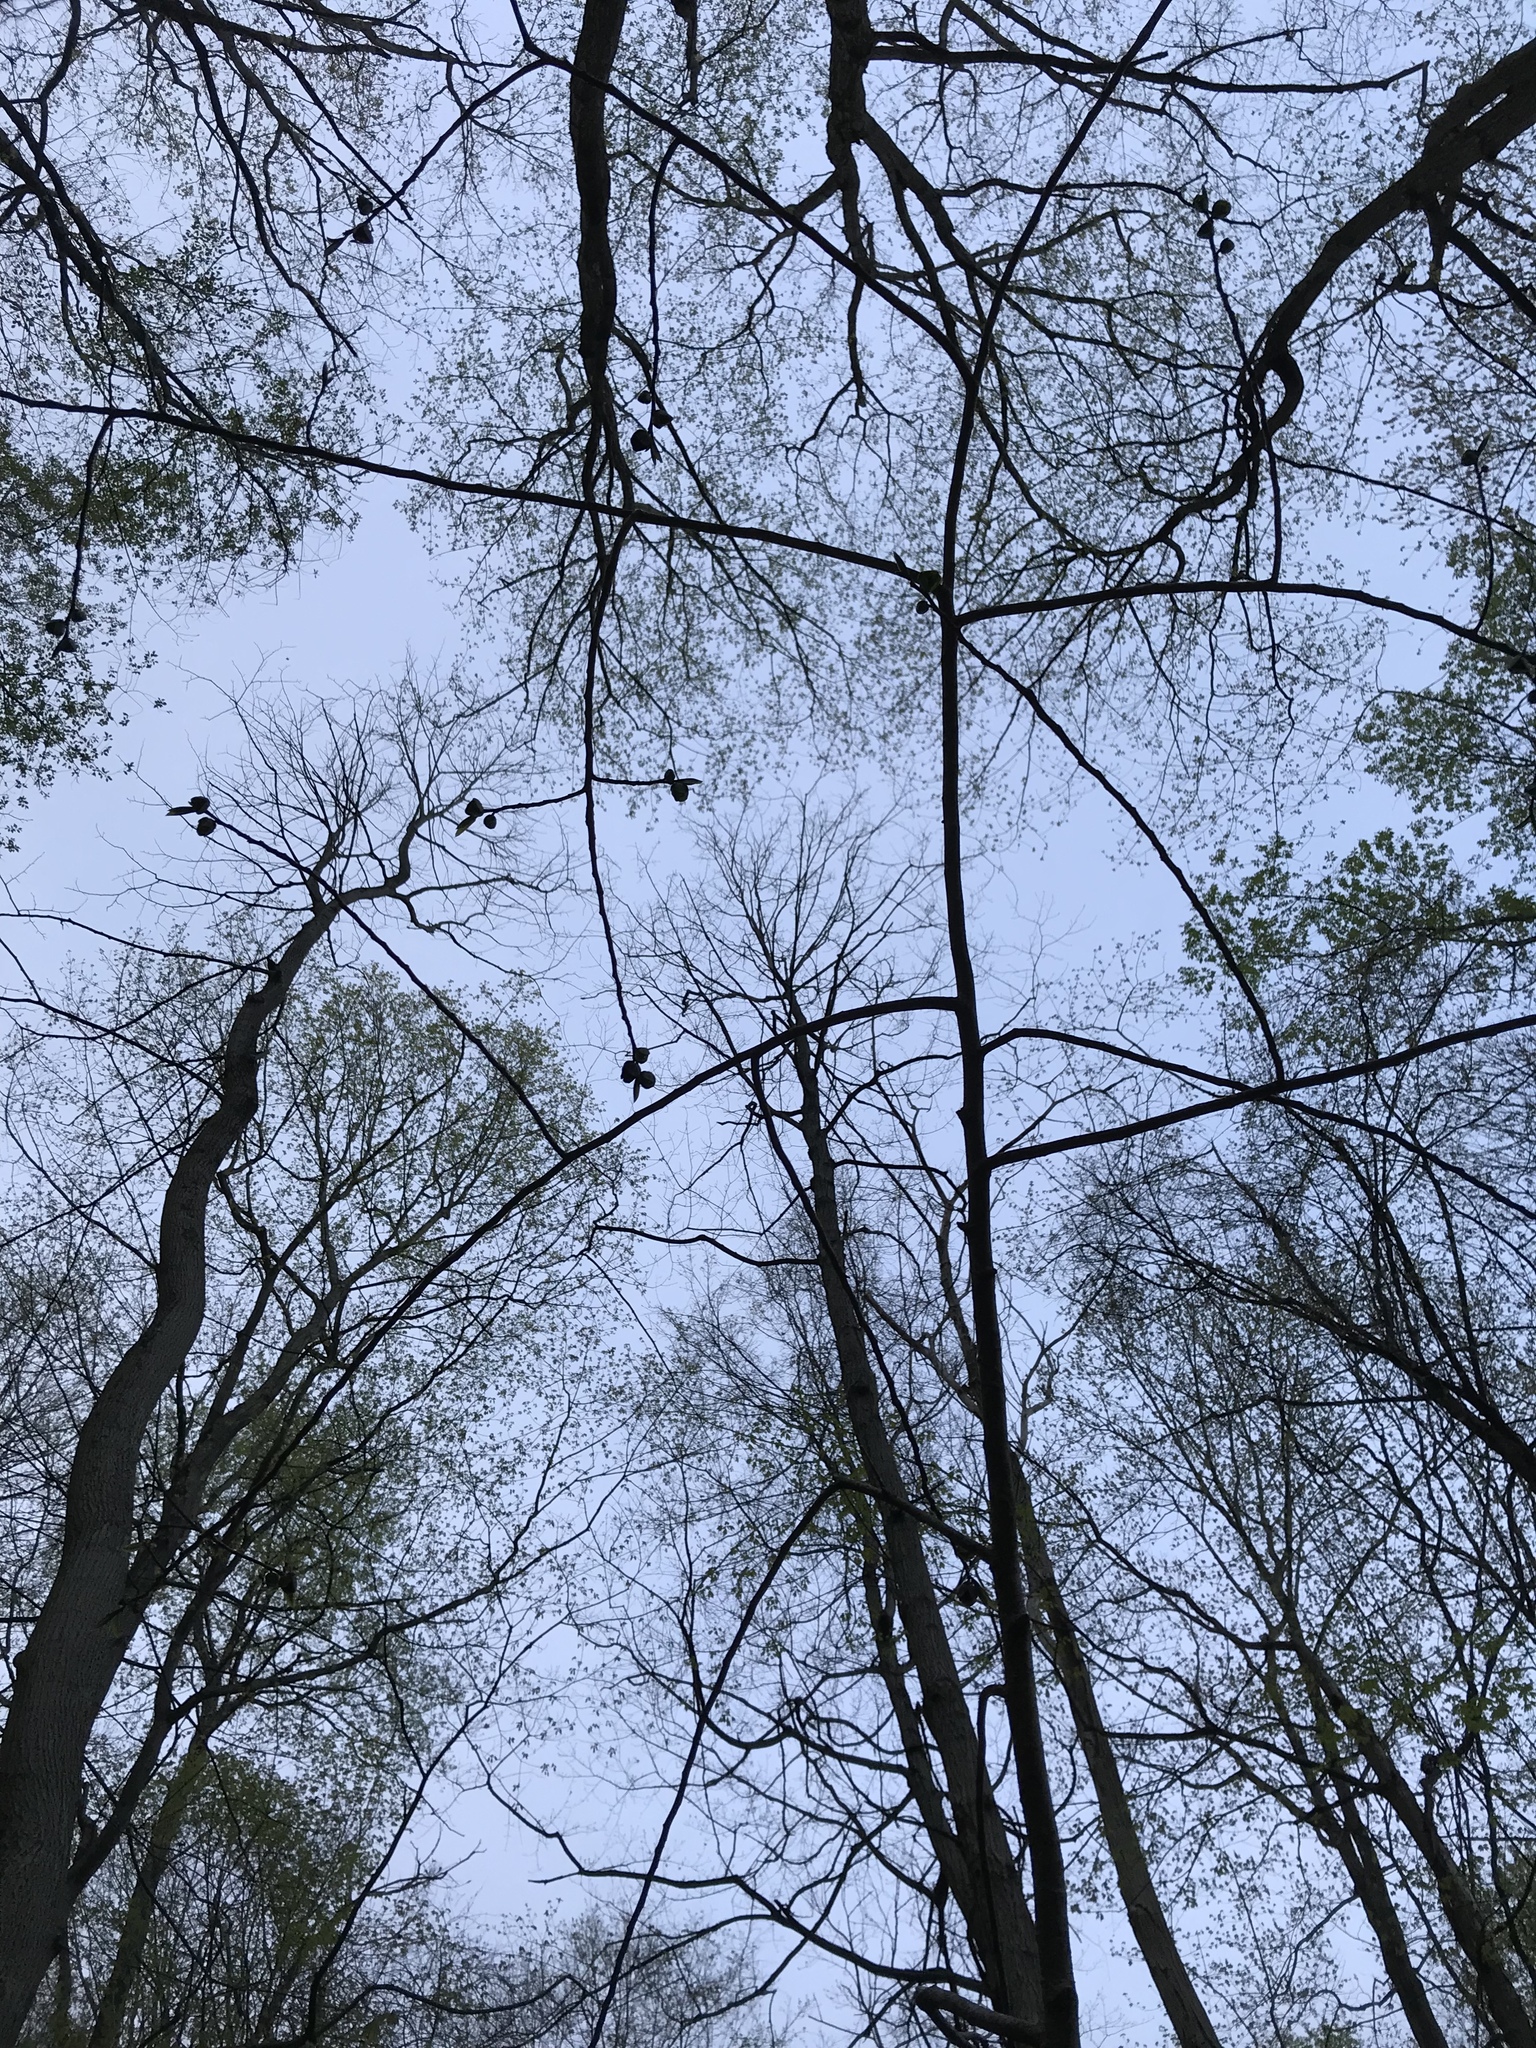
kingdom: Plantae
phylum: Tracheophyta
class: Magnoliopsida
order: Magnoliales
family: Annonaceae
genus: Asimina
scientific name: Asimina triloba
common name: Dog-banana
